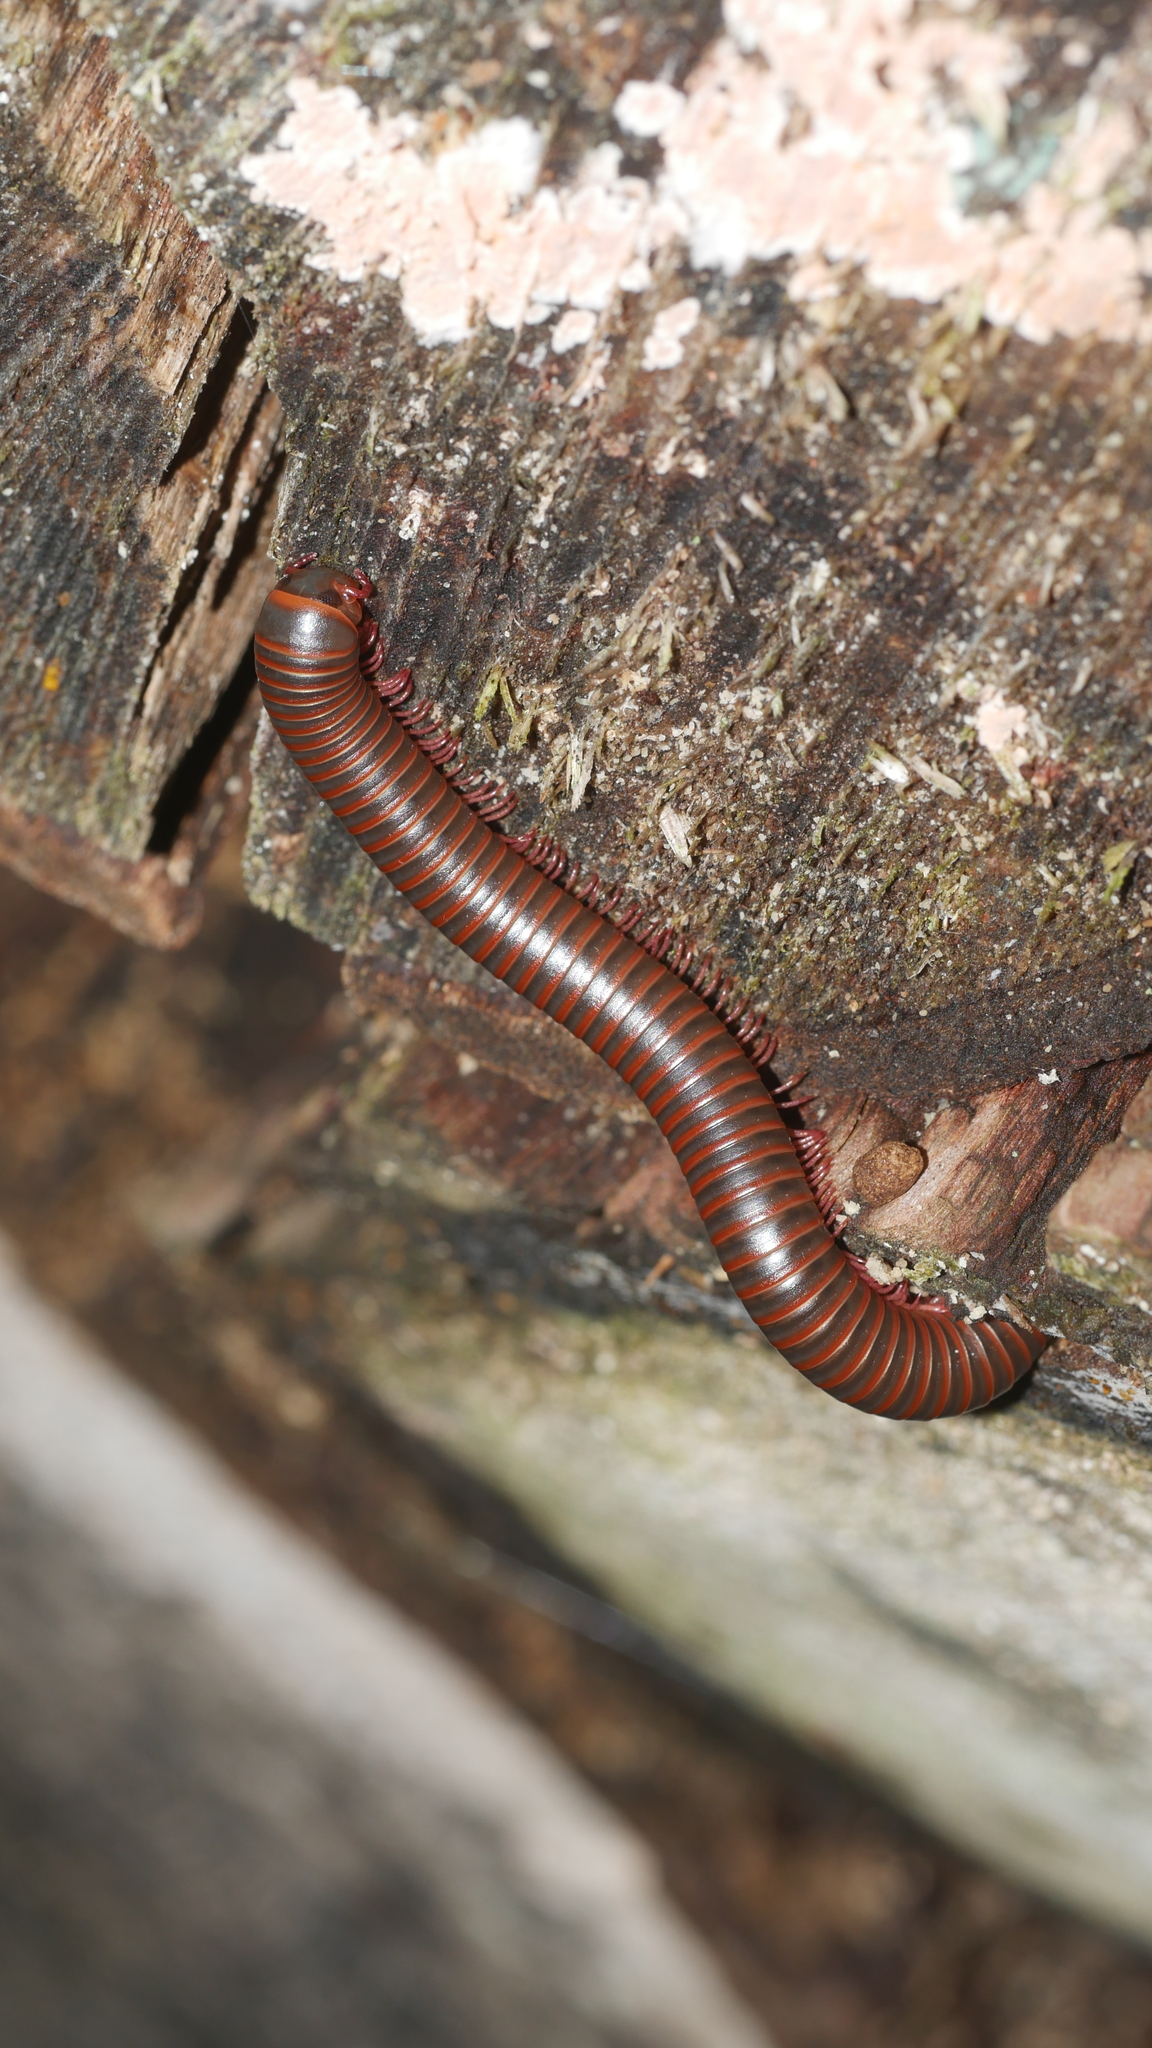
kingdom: Animalia
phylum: Arthropoda
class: Diplopoda
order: Spirobolida
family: Spirobolidae
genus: Narceus
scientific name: Narceus
